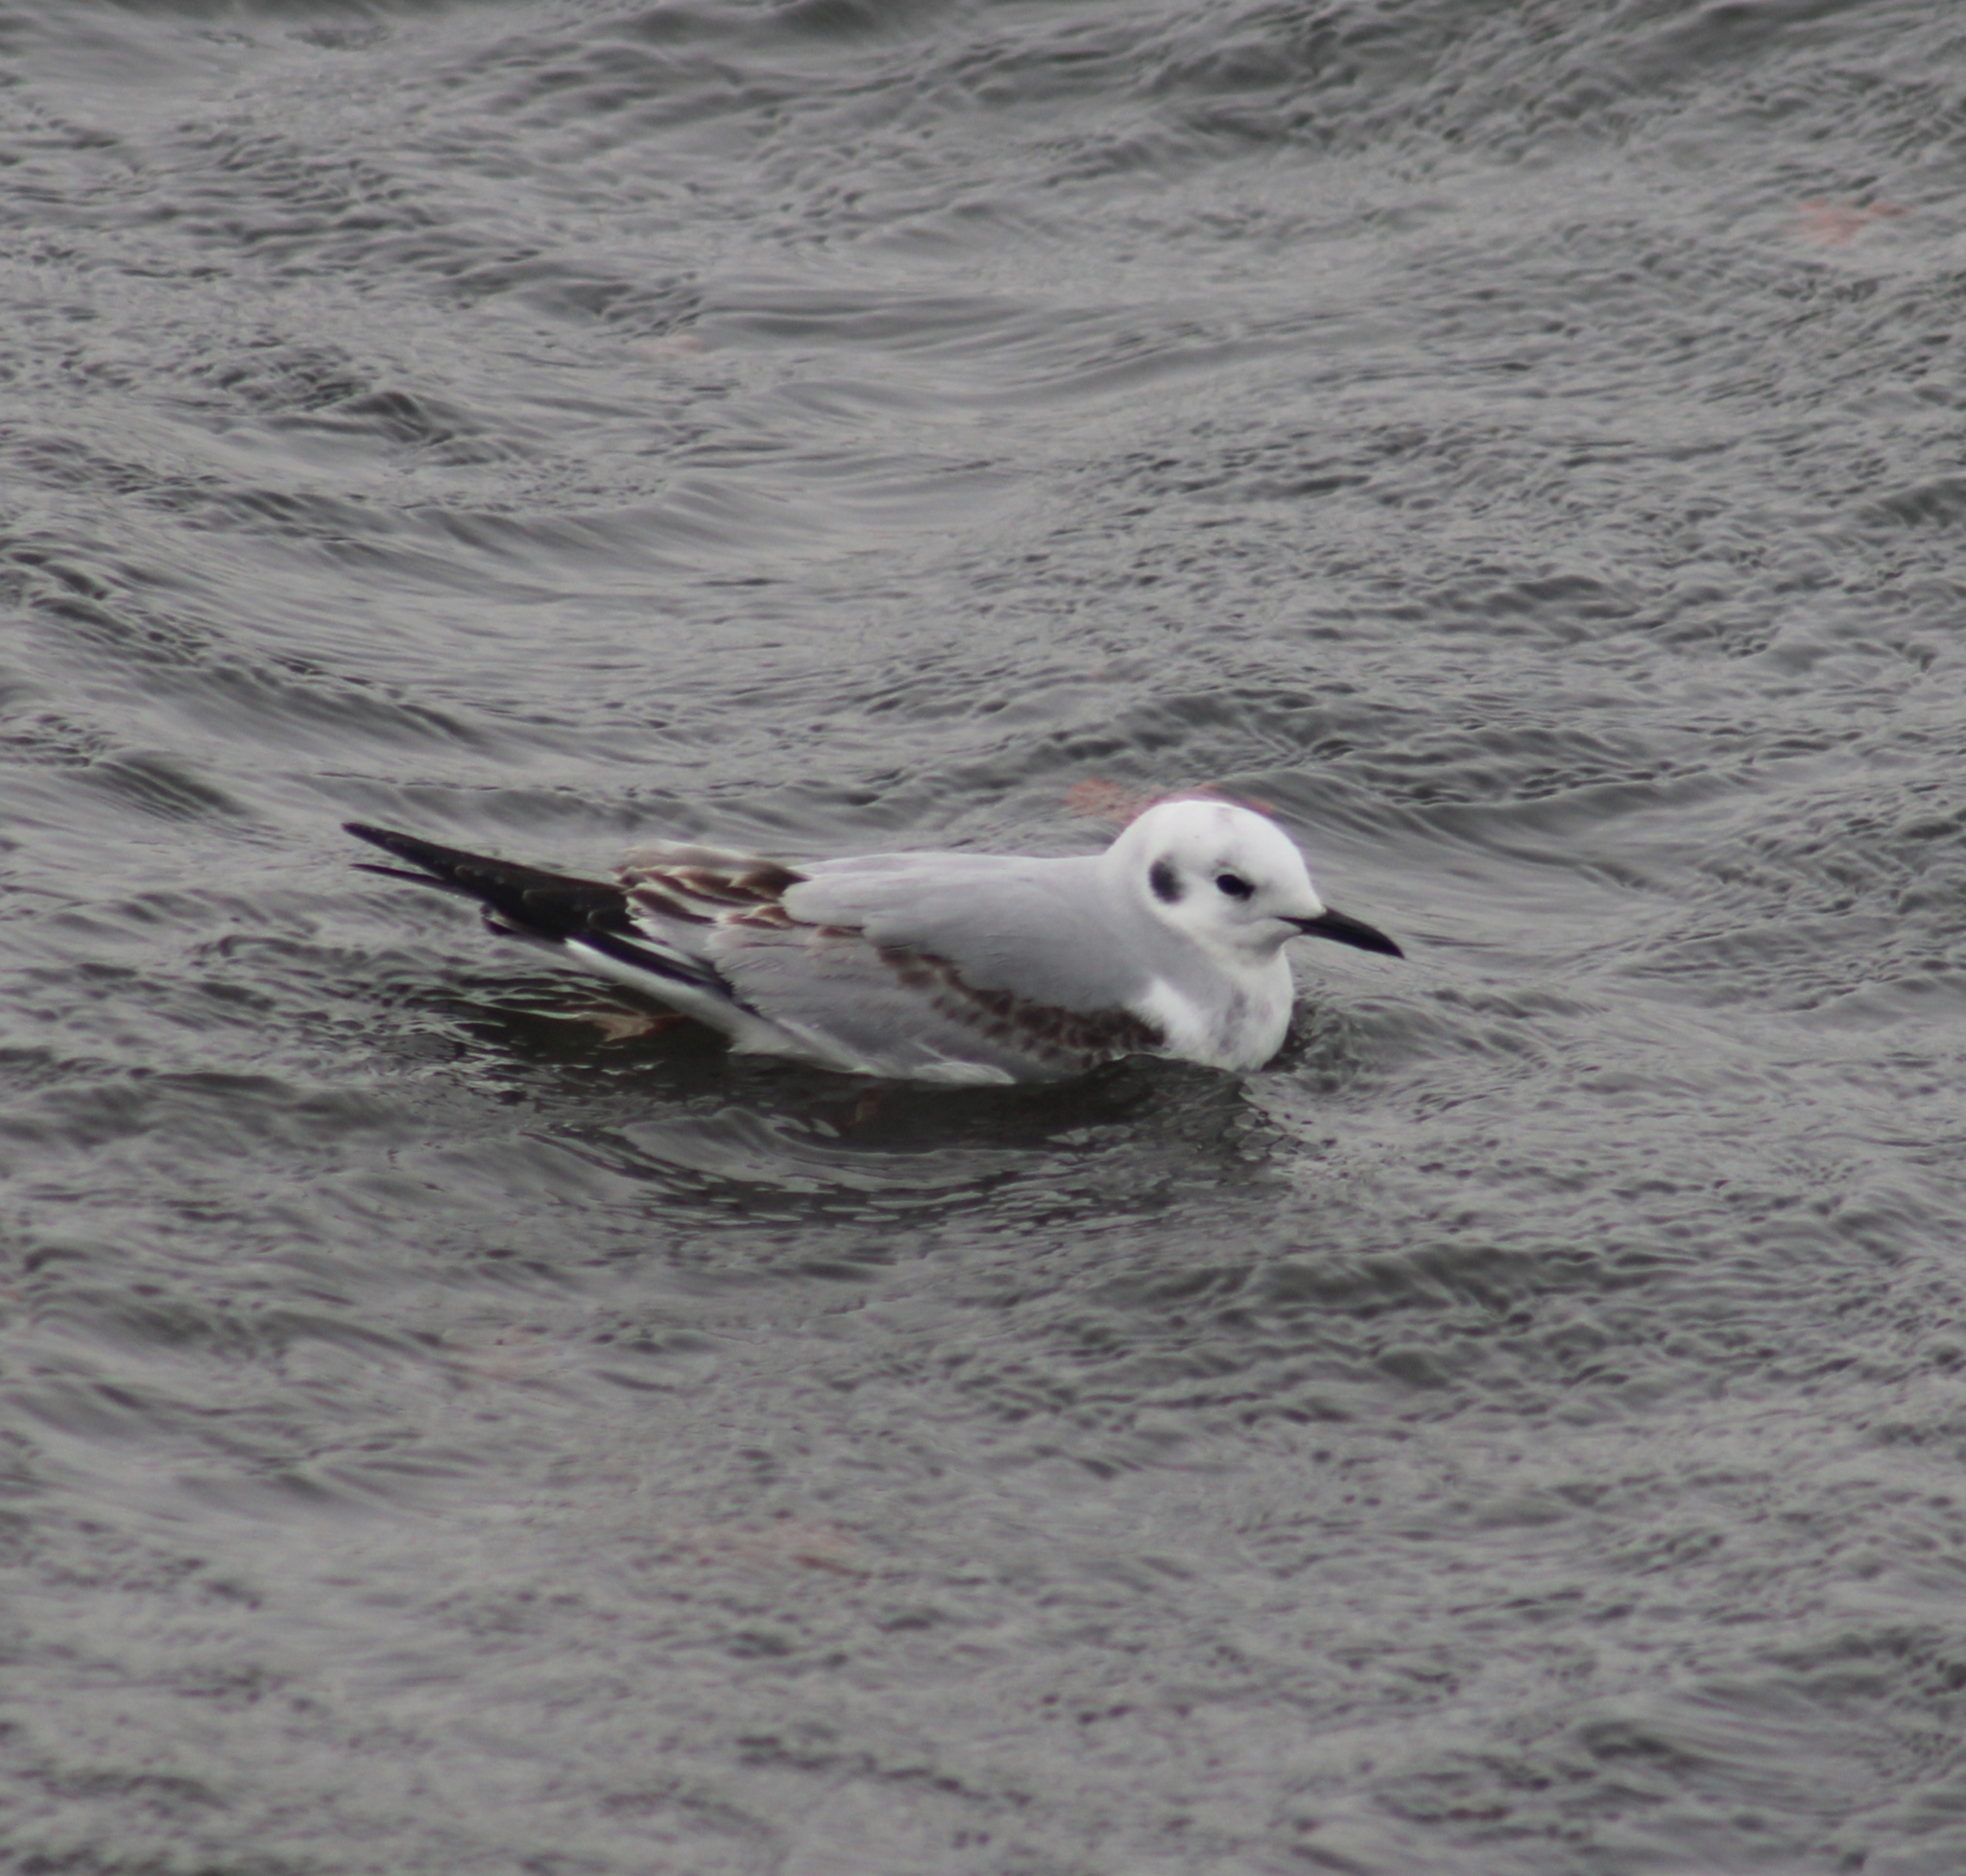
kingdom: Animalia
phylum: Chordata
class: Aves
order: Charadriiformes
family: Laridae
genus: Chroicocephalus
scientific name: Chroicocephalus philadelphia
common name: Bonaparte's gull
